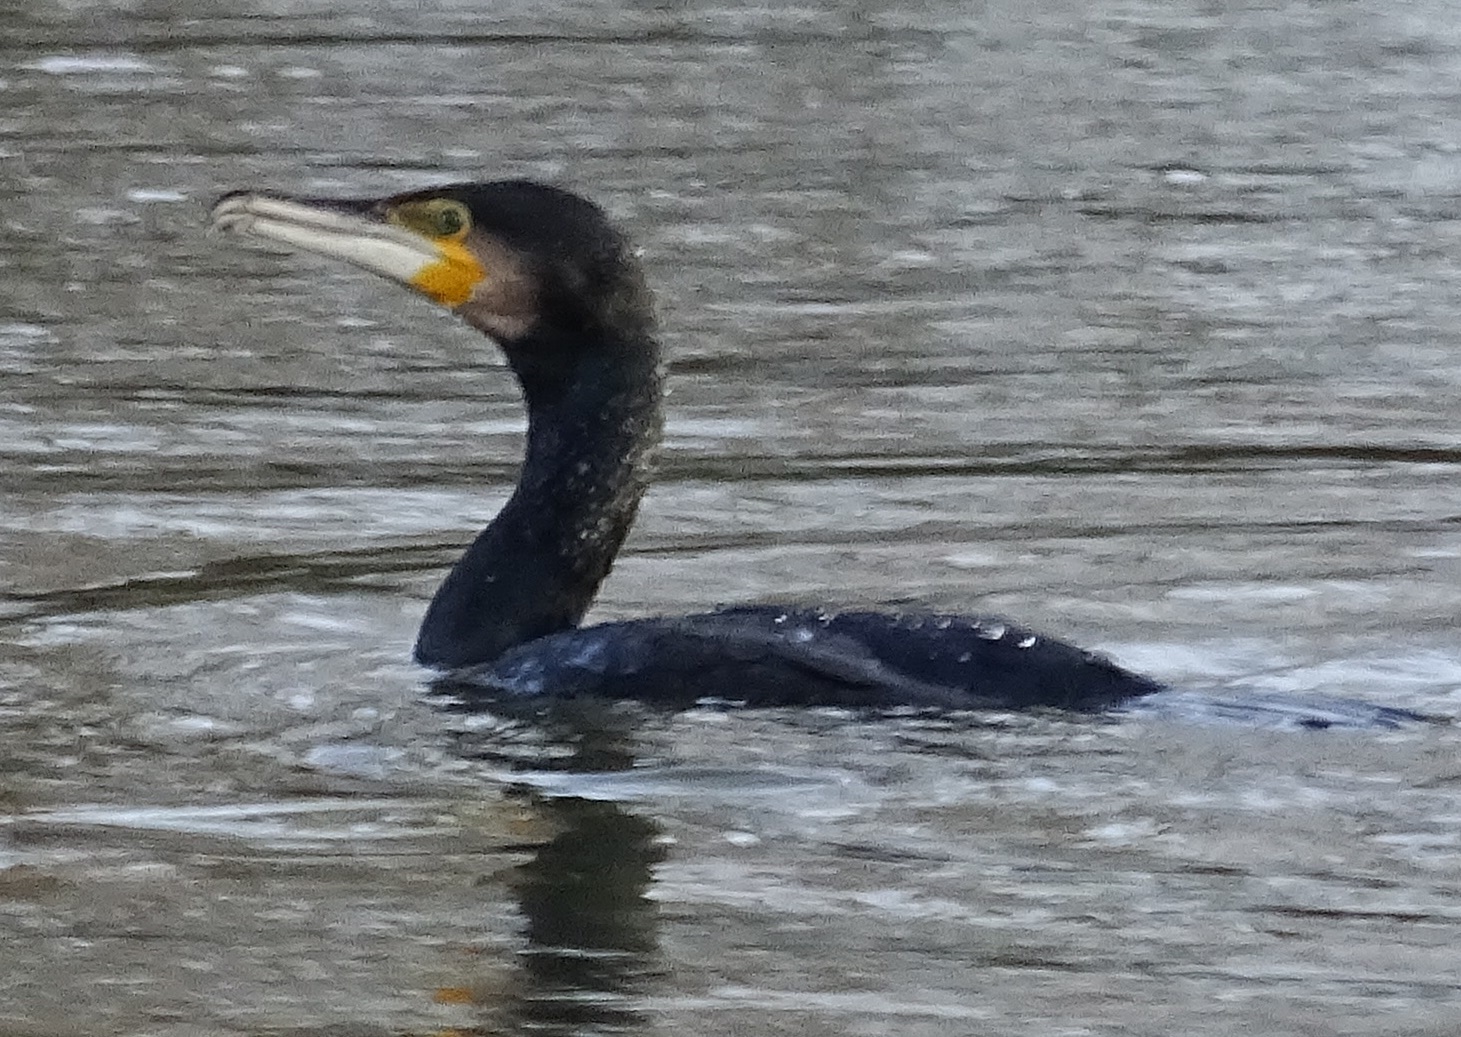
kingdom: Animalia
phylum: Chordata
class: Aves
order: Suliformes
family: Phalacrocoracidae
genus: Phalacrocorax
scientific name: Phalacrocorax carbo
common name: Great cormorant
